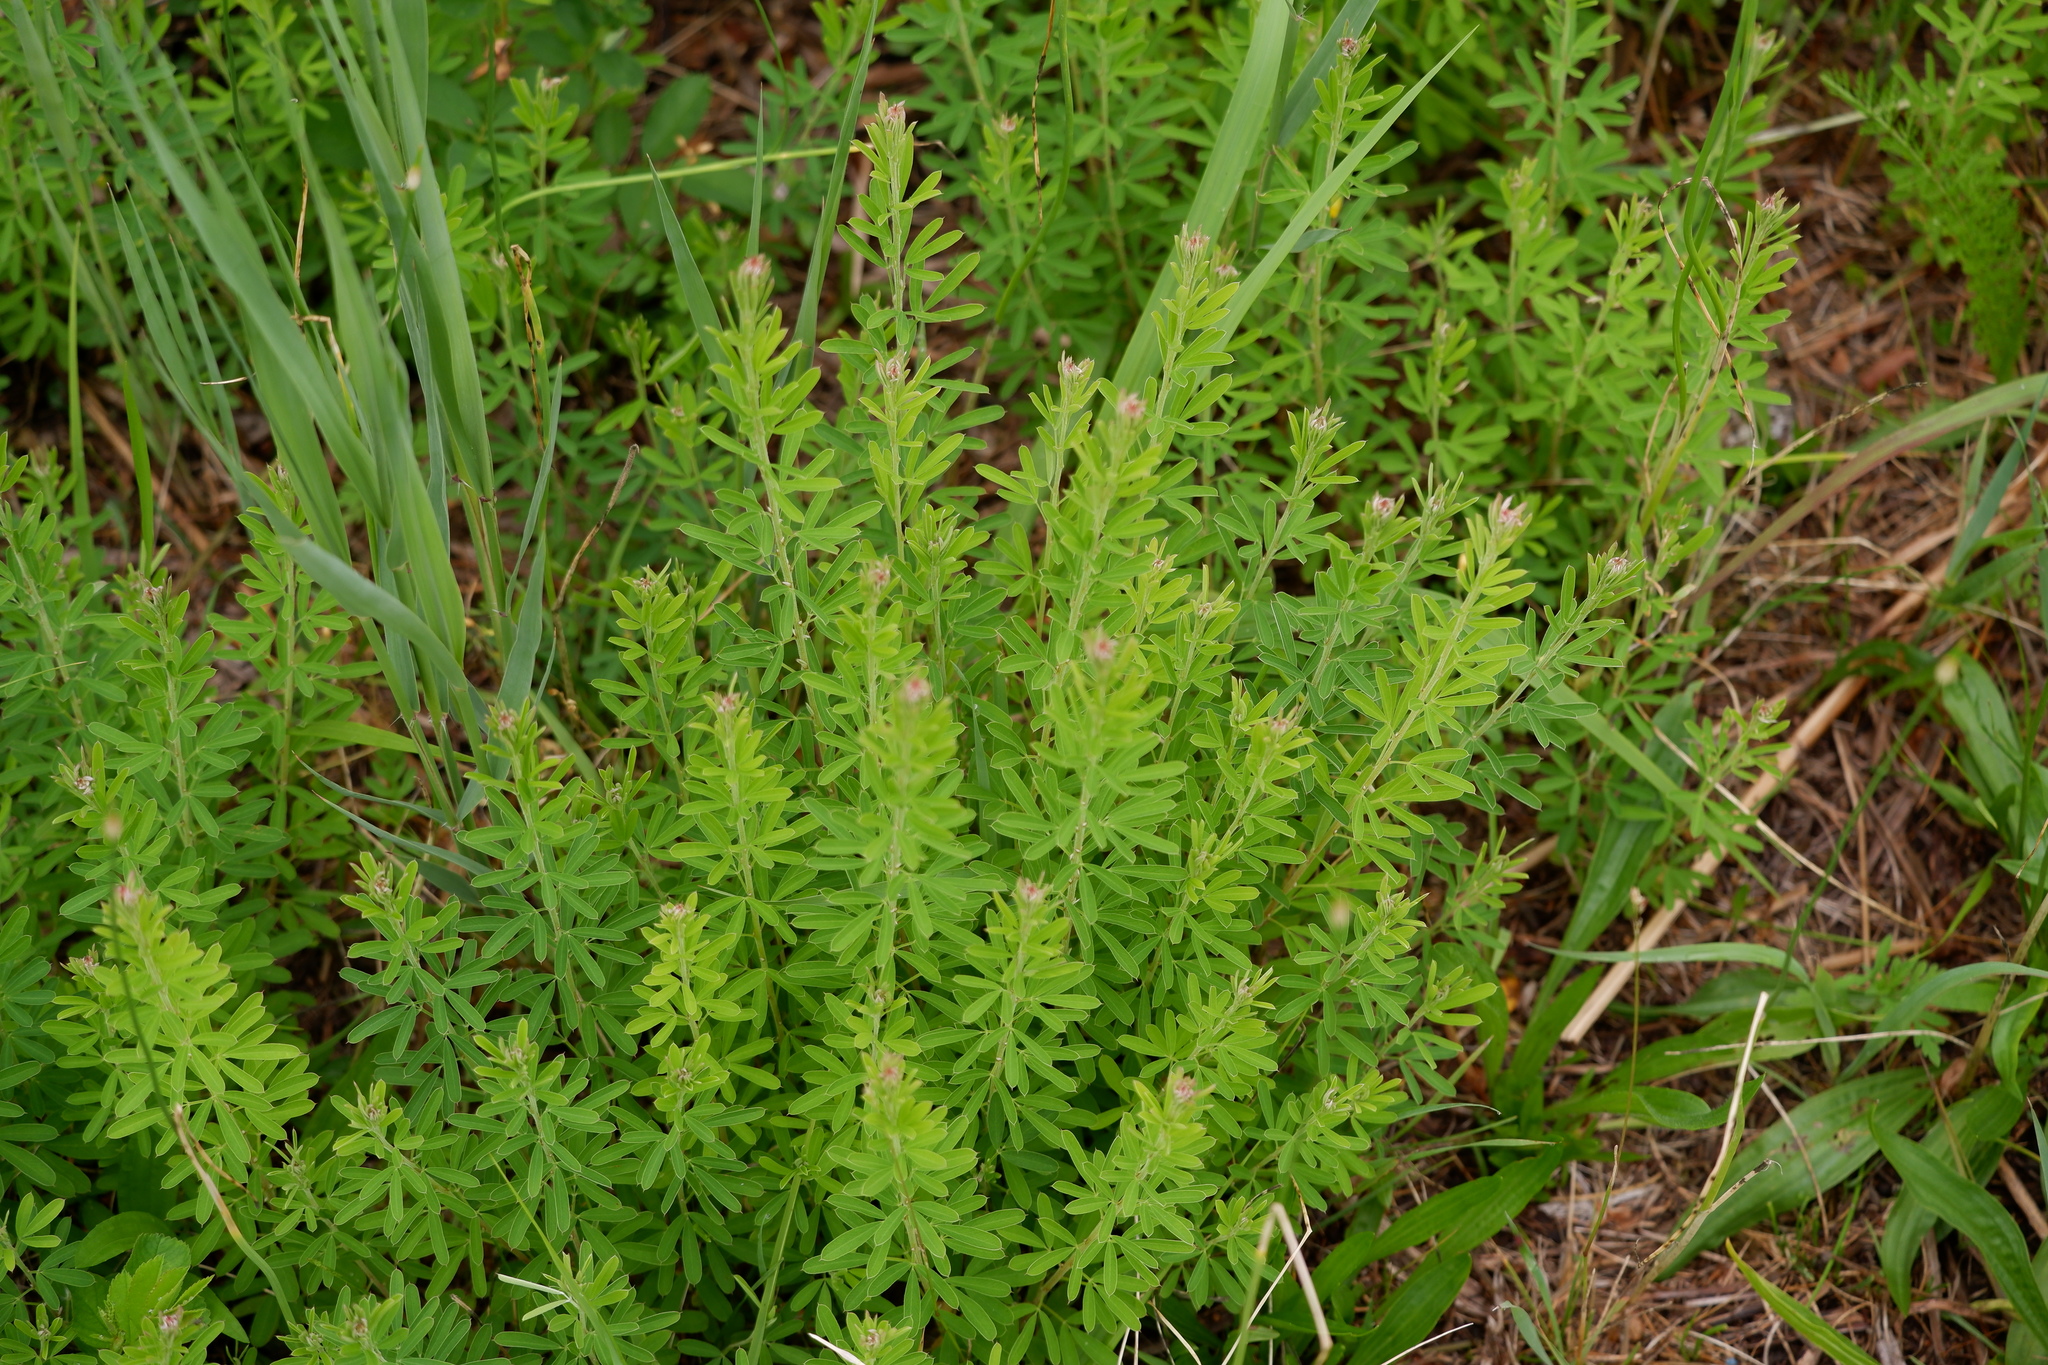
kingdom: Plantae
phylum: Tracheophyta
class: Magnoliopsida
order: Fabales
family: Fabaceae
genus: Lespedeza
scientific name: Lespedeza cuneata
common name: Chinese bush-clover
